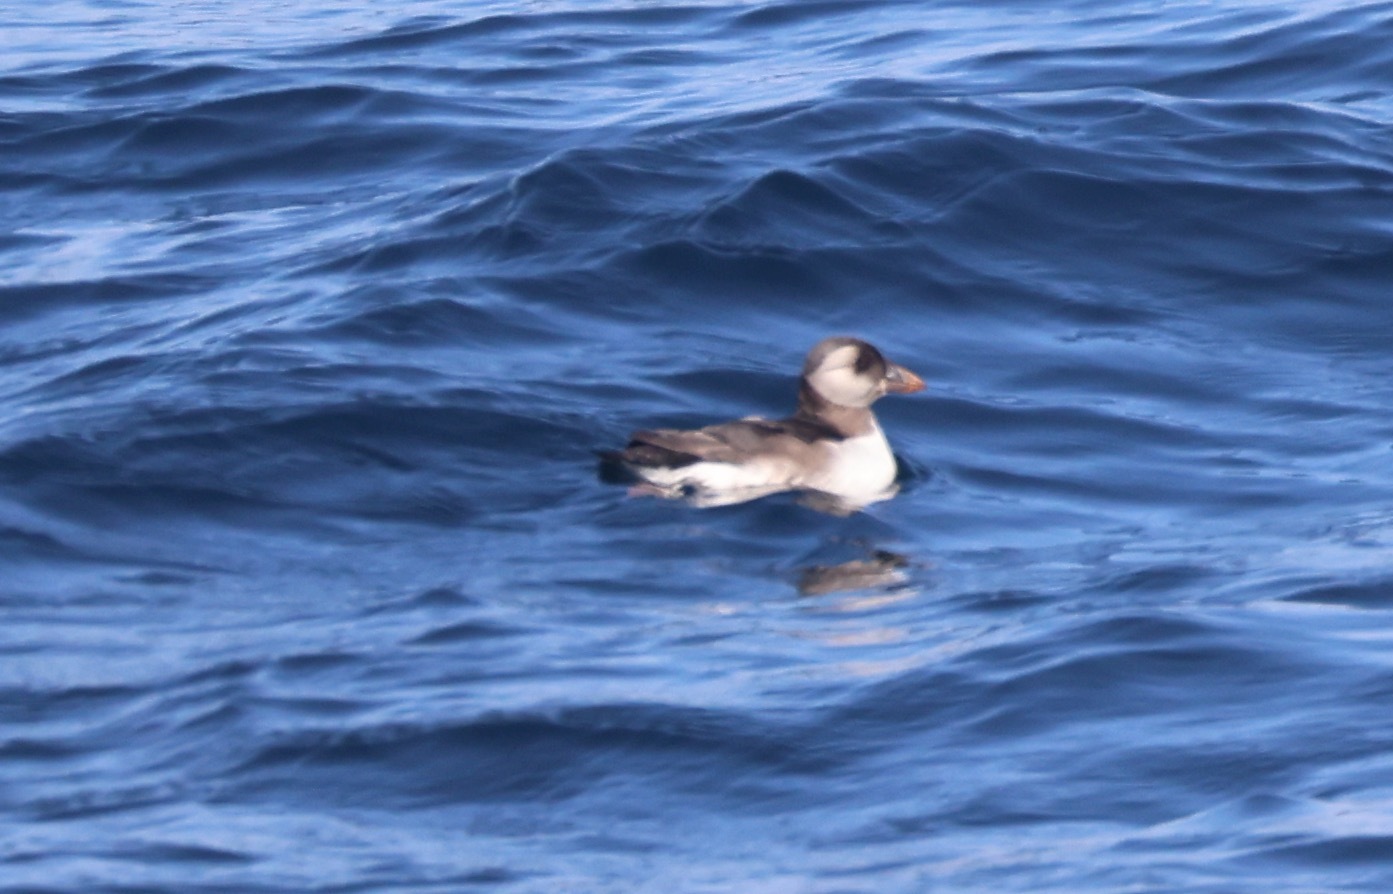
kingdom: Animalia
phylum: Chordata
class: Aves
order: Charadriiformes
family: Alcidae
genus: Fratercula
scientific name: Fratercula arctica
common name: Atlantic puffin
